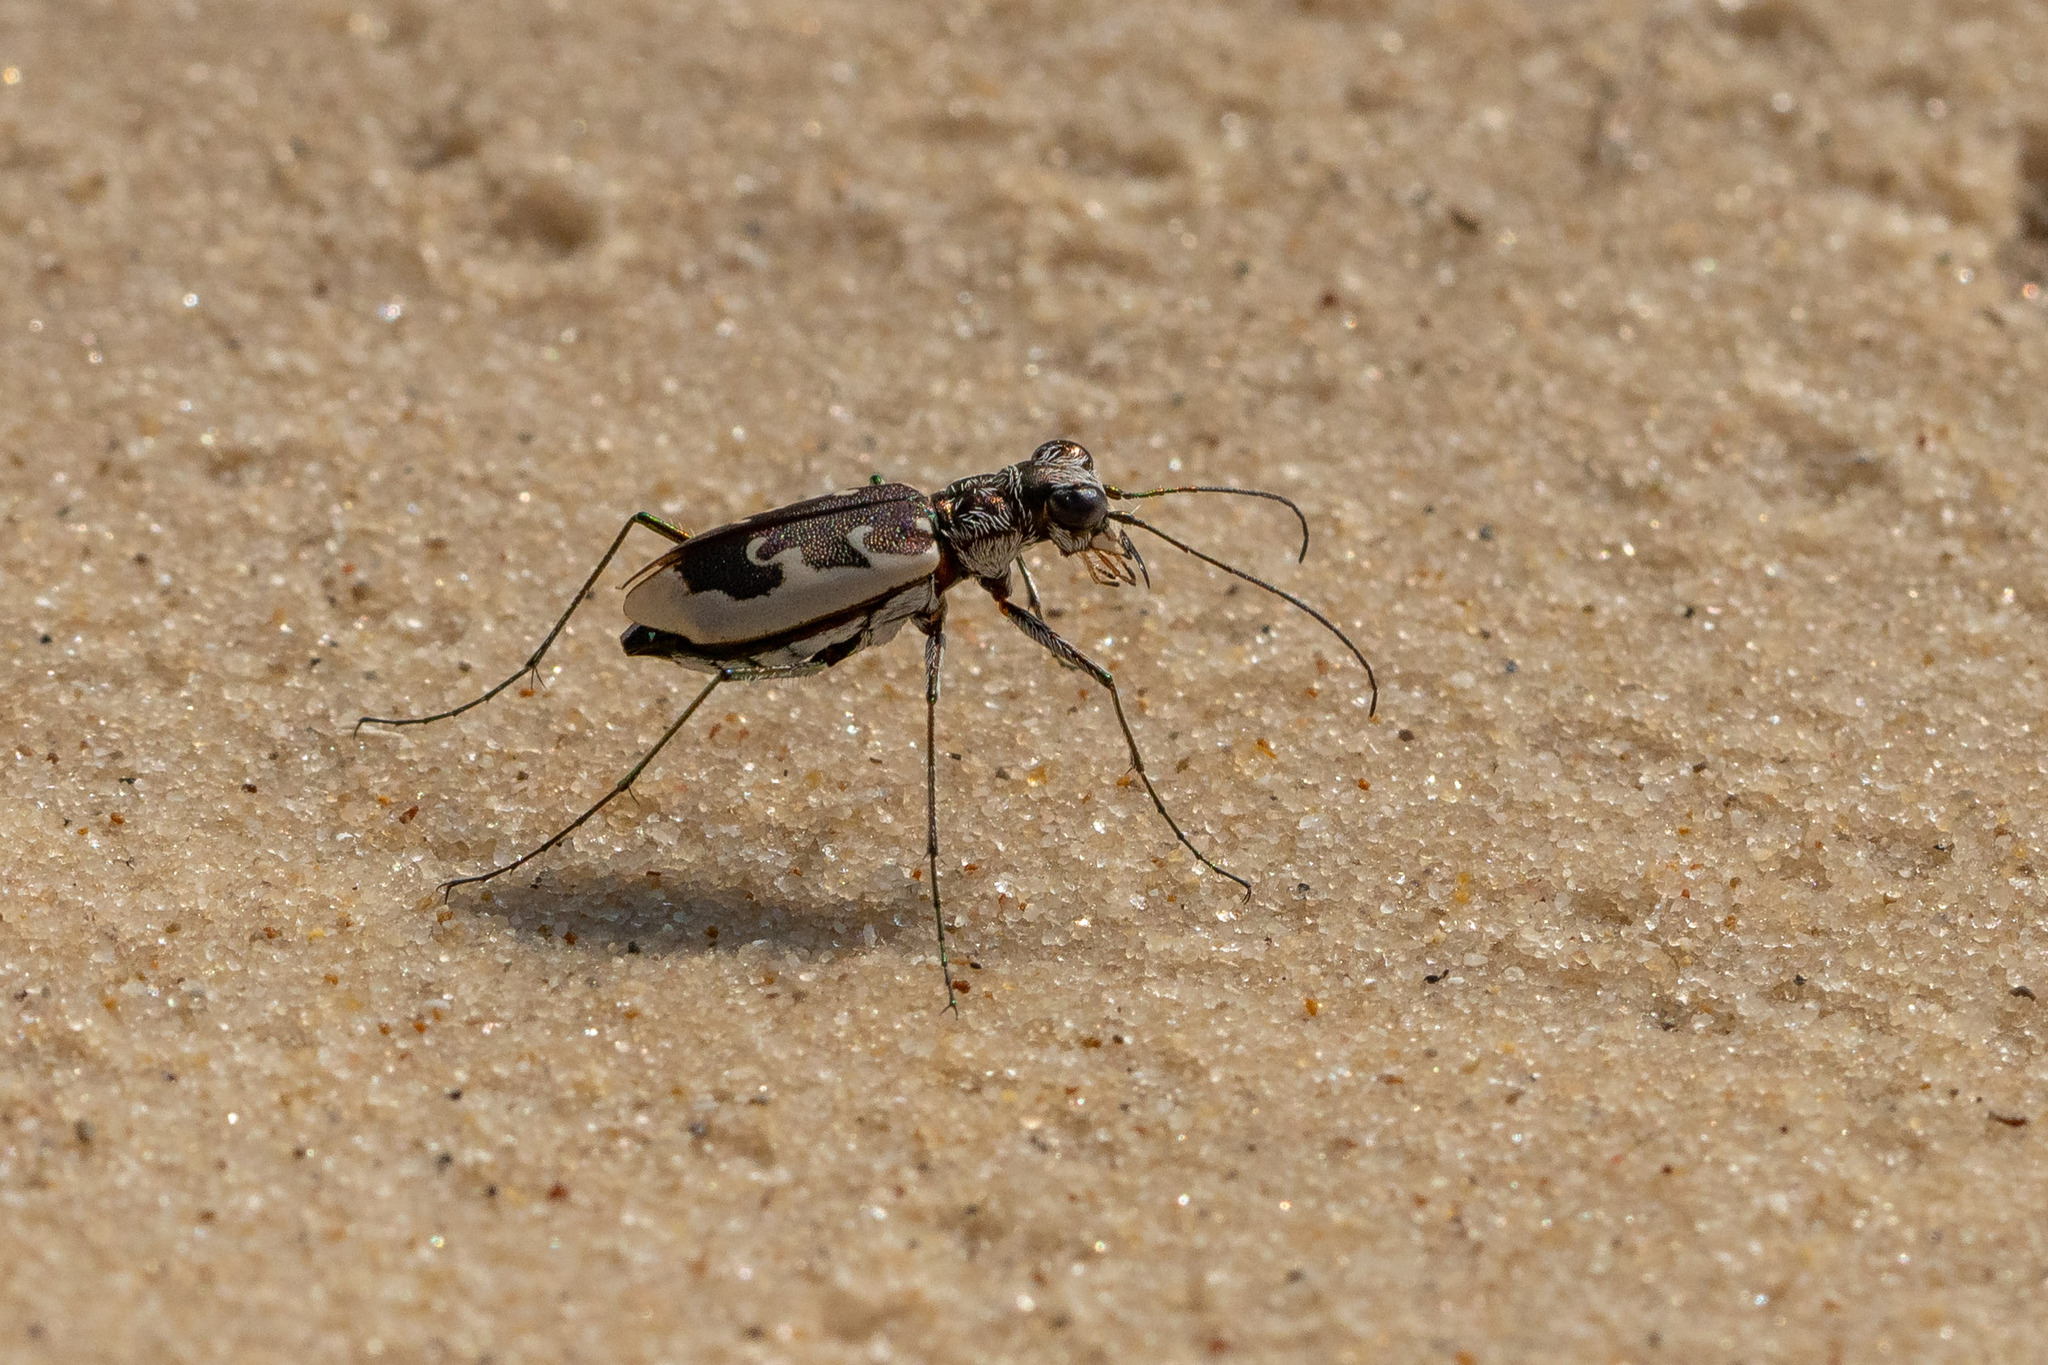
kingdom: Animalia
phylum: Arthropoda
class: Insecta
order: Coleoptera
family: Carabidae
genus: Ellipsoptera
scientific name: Ellipsoptera wapleri
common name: White-sand tiger beetle
